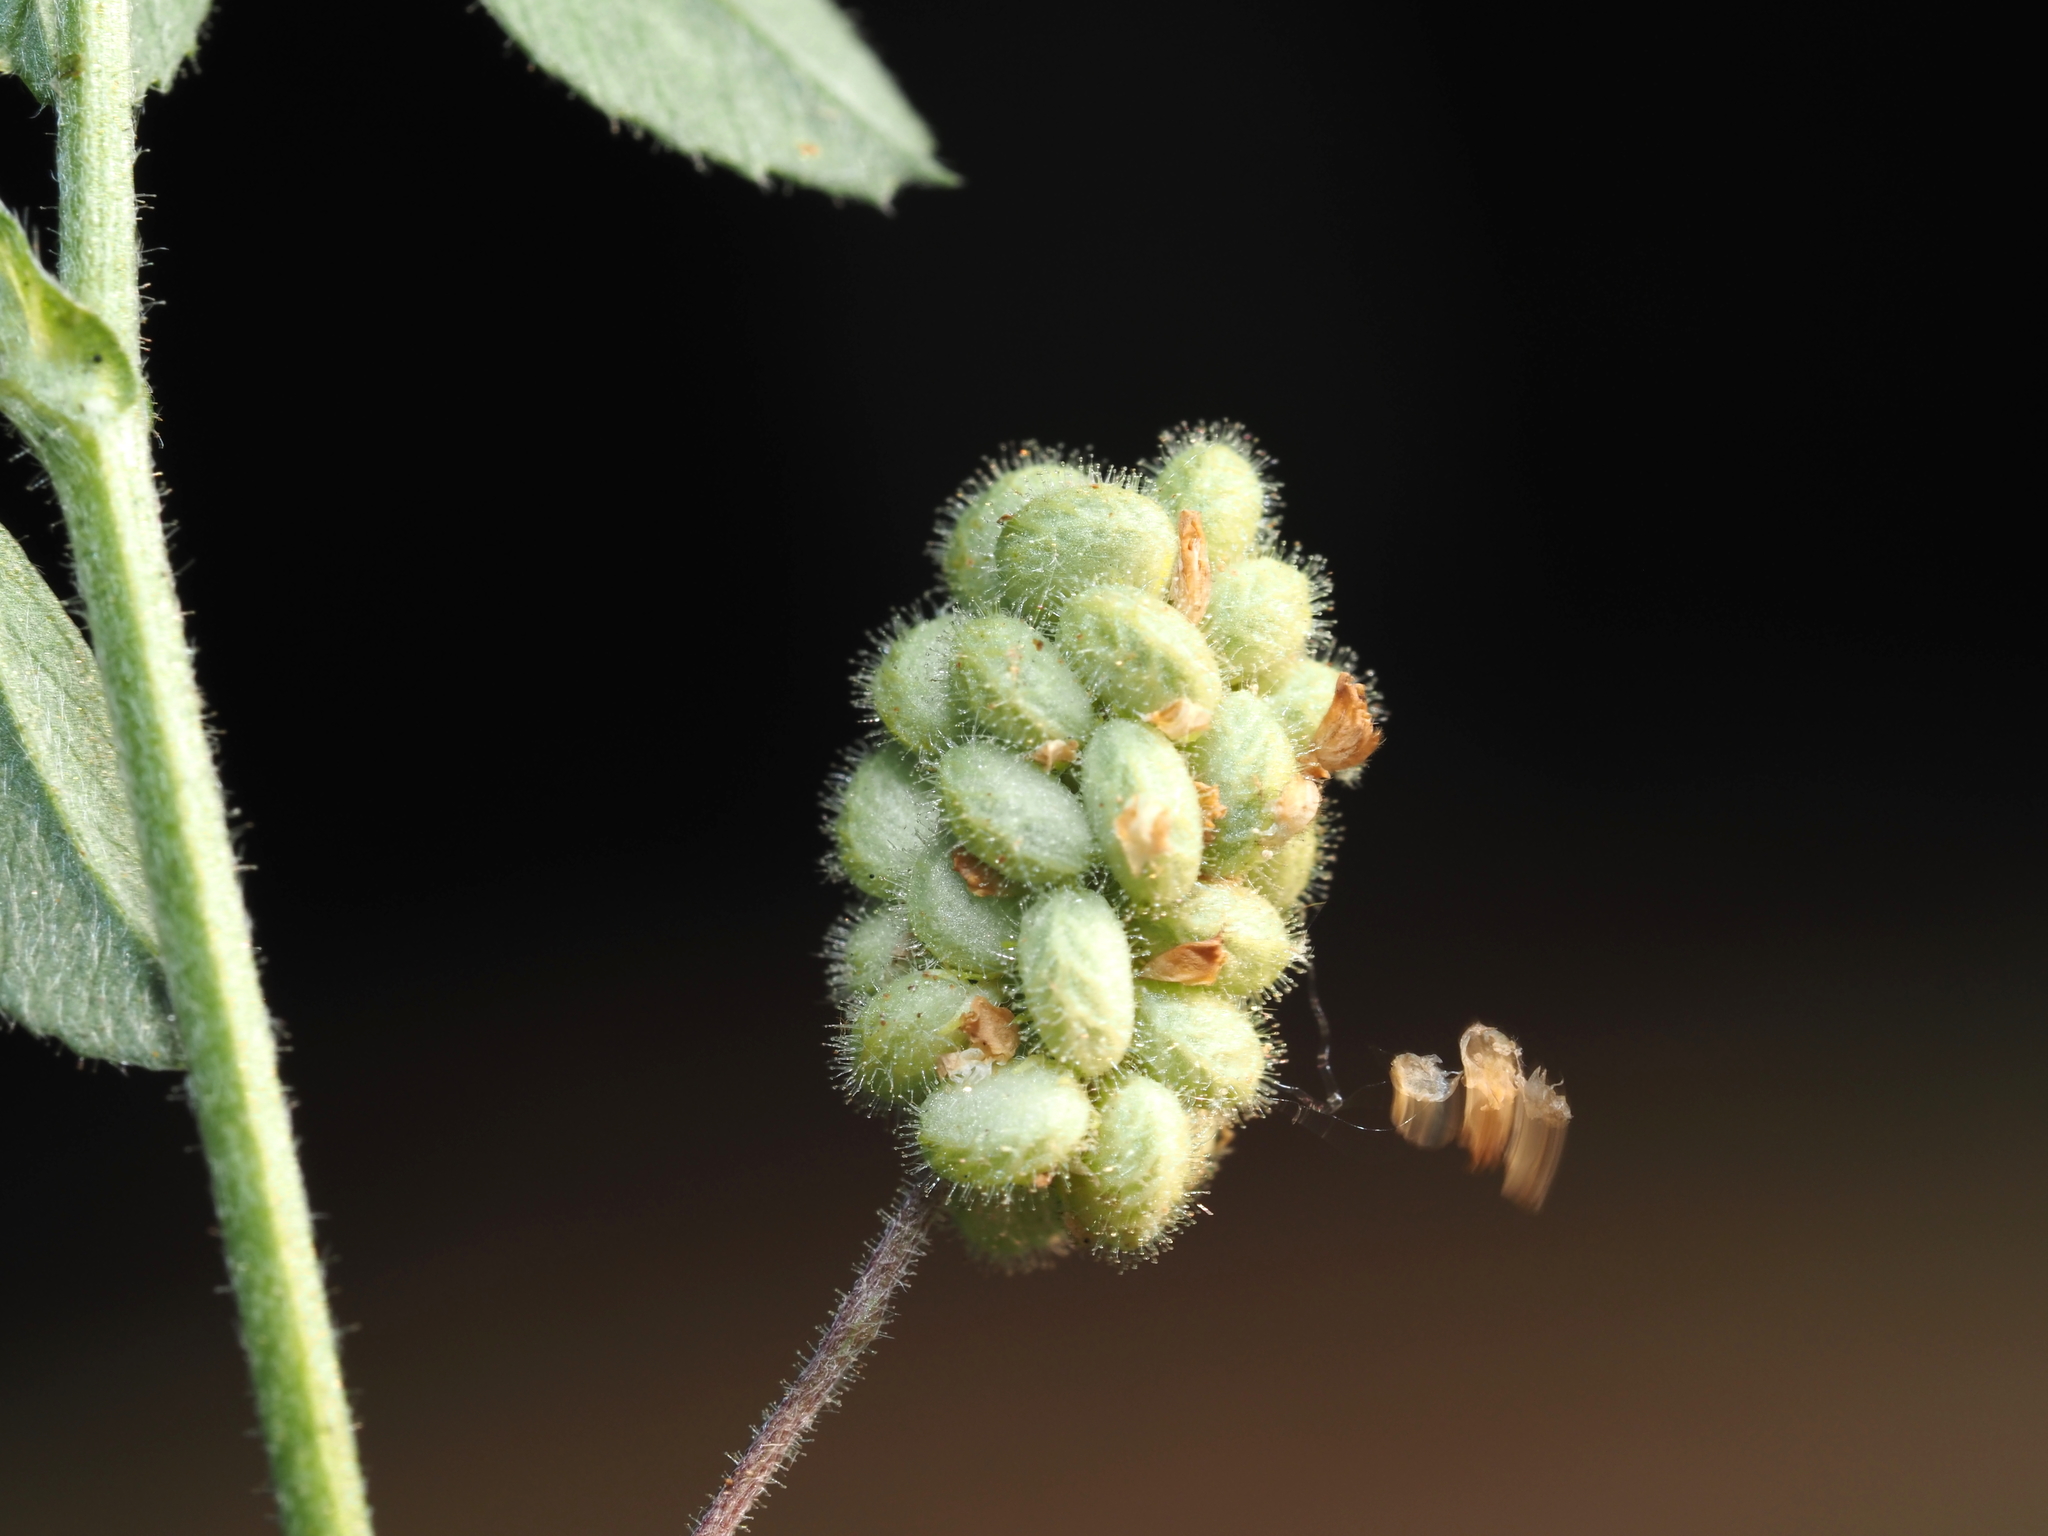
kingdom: Plantae
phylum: Tracheophyta
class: Magnoliopsida
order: Fabales
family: Fabaceae
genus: Medicago
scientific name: Medicago lupulina
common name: Black medick
